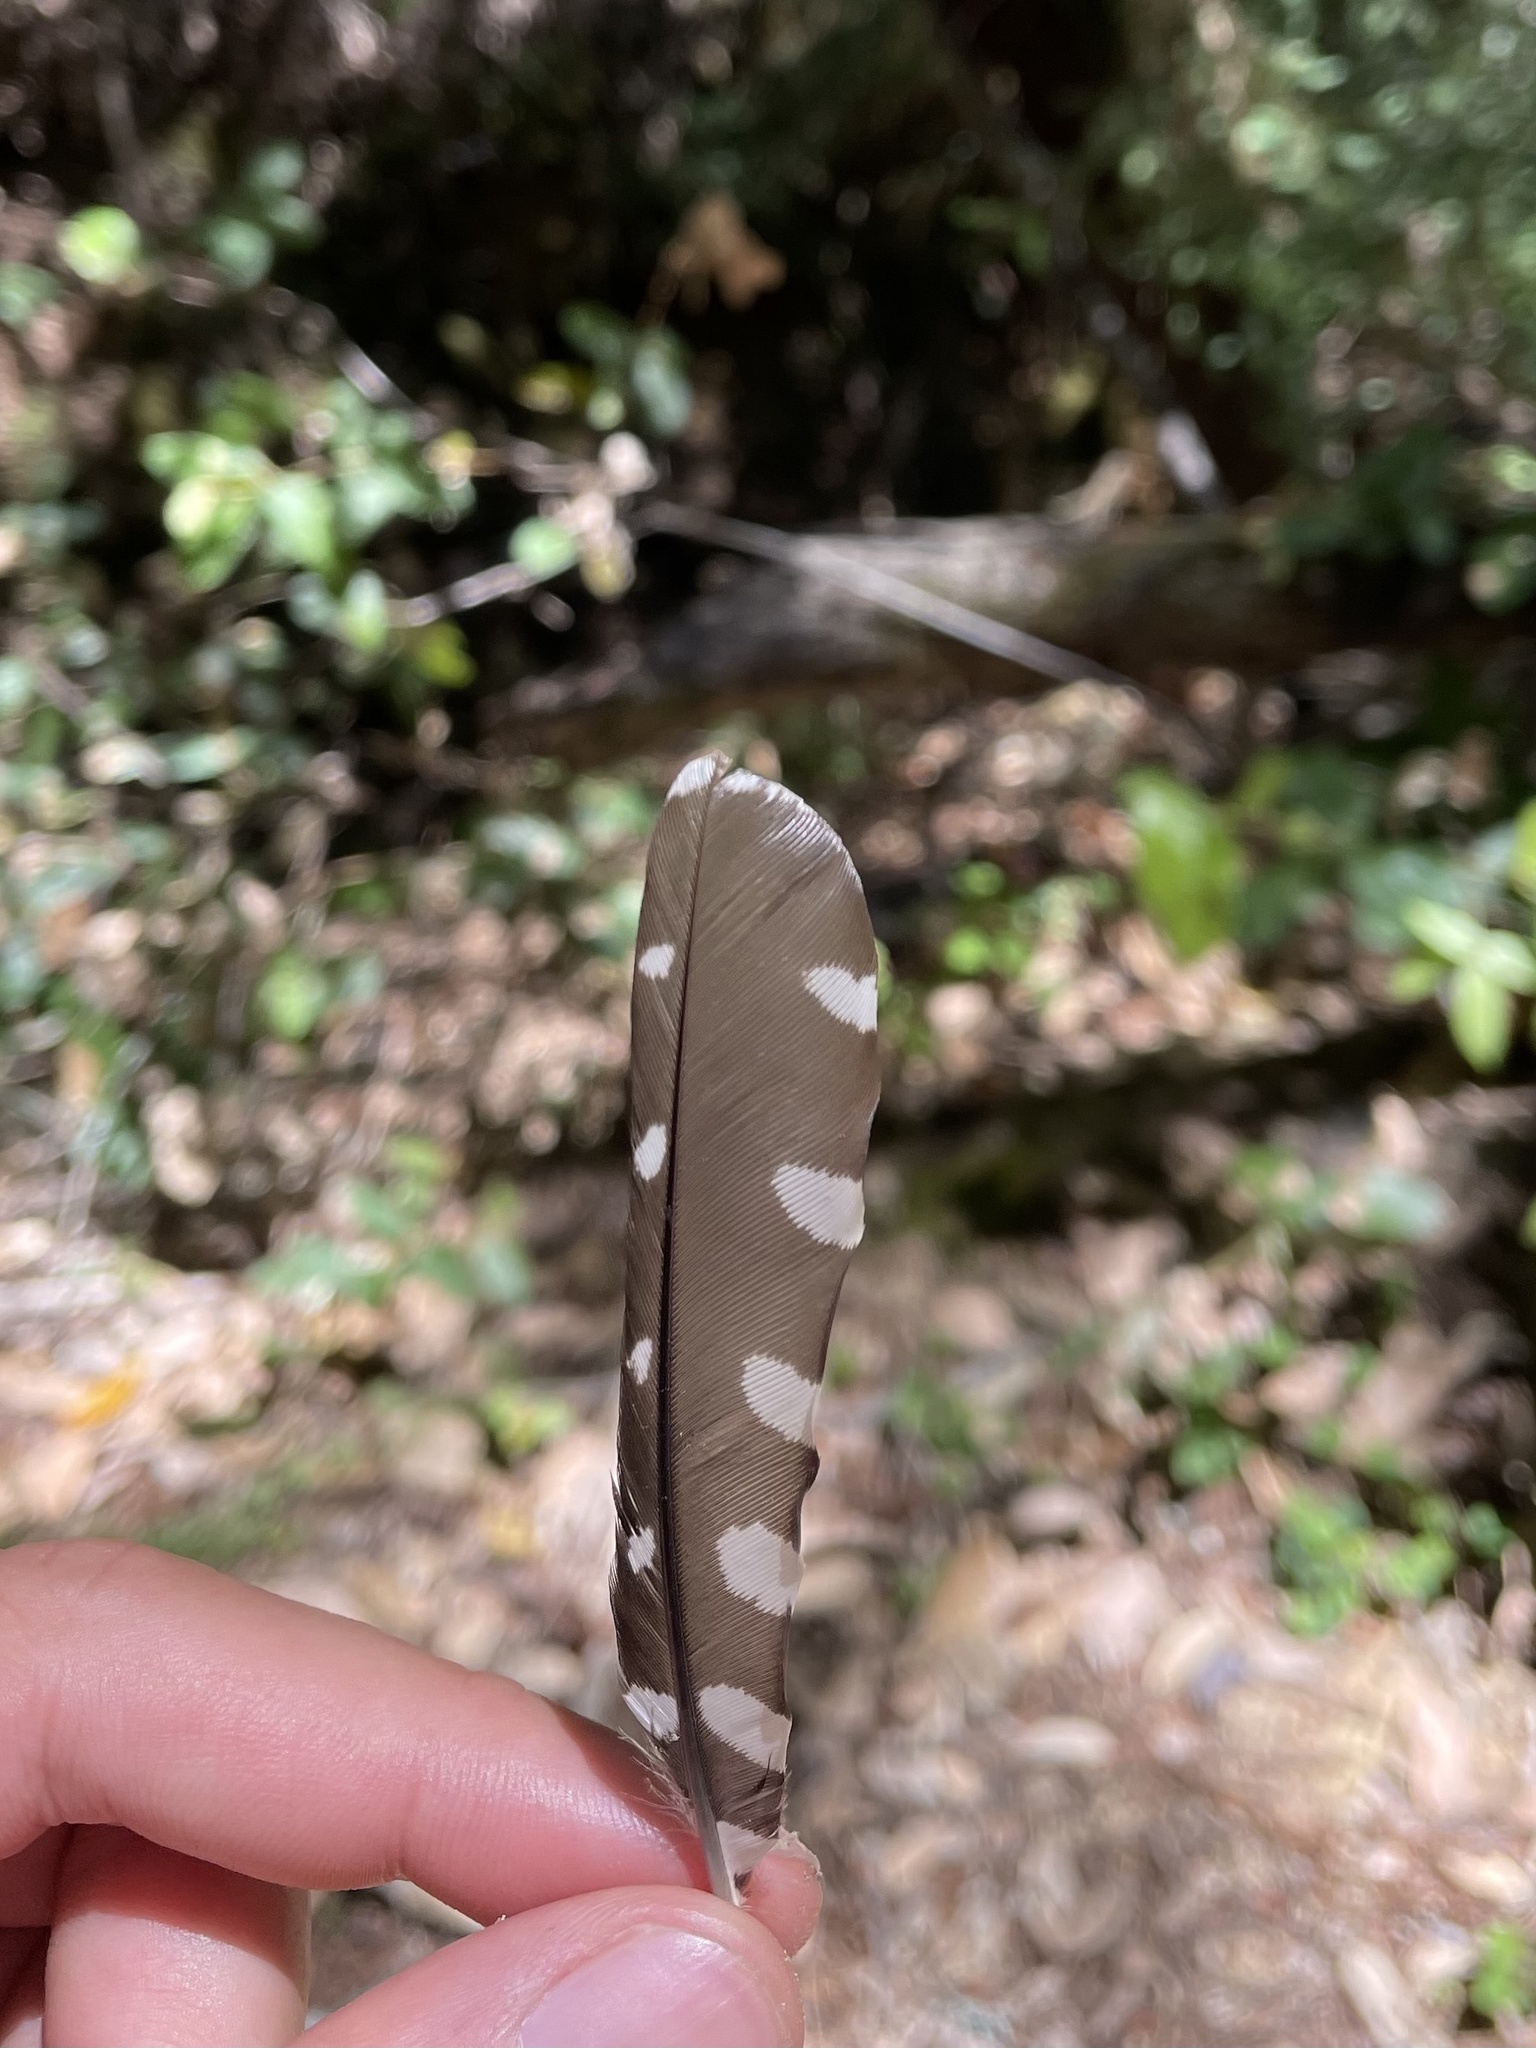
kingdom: Animalia
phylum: Chordata
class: Aves
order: Piciformes
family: Picidae
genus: Dryobates
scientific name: Dryobates nuttallii
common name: Nuttall's woodpecker
